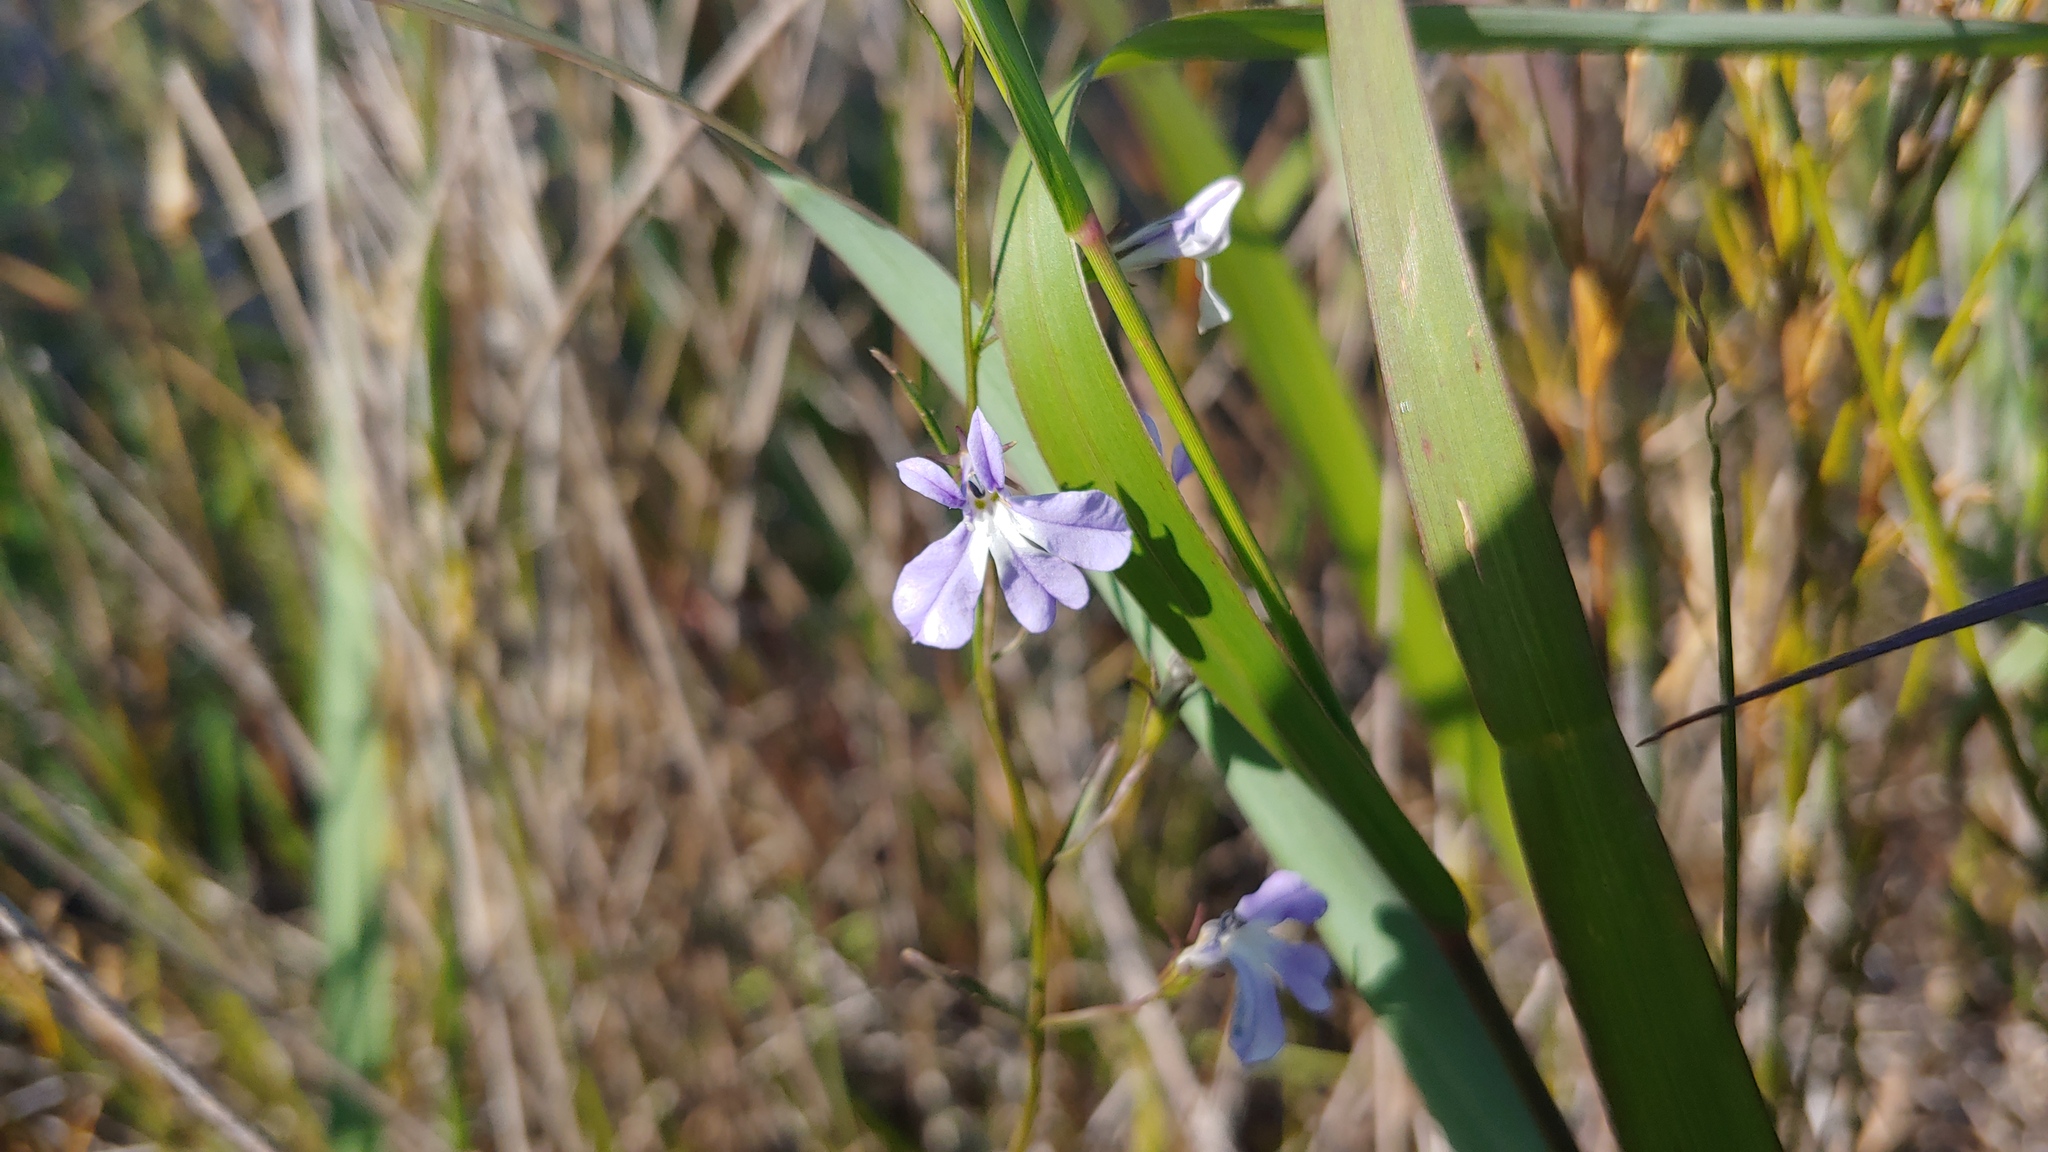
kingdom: Plantae
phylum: Tracheophyta
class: Magnoliopsida
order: Asterales
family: Campanulaceae
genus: Lobelia
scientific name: Lobelia kalmii
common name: Kalm's lobelia
